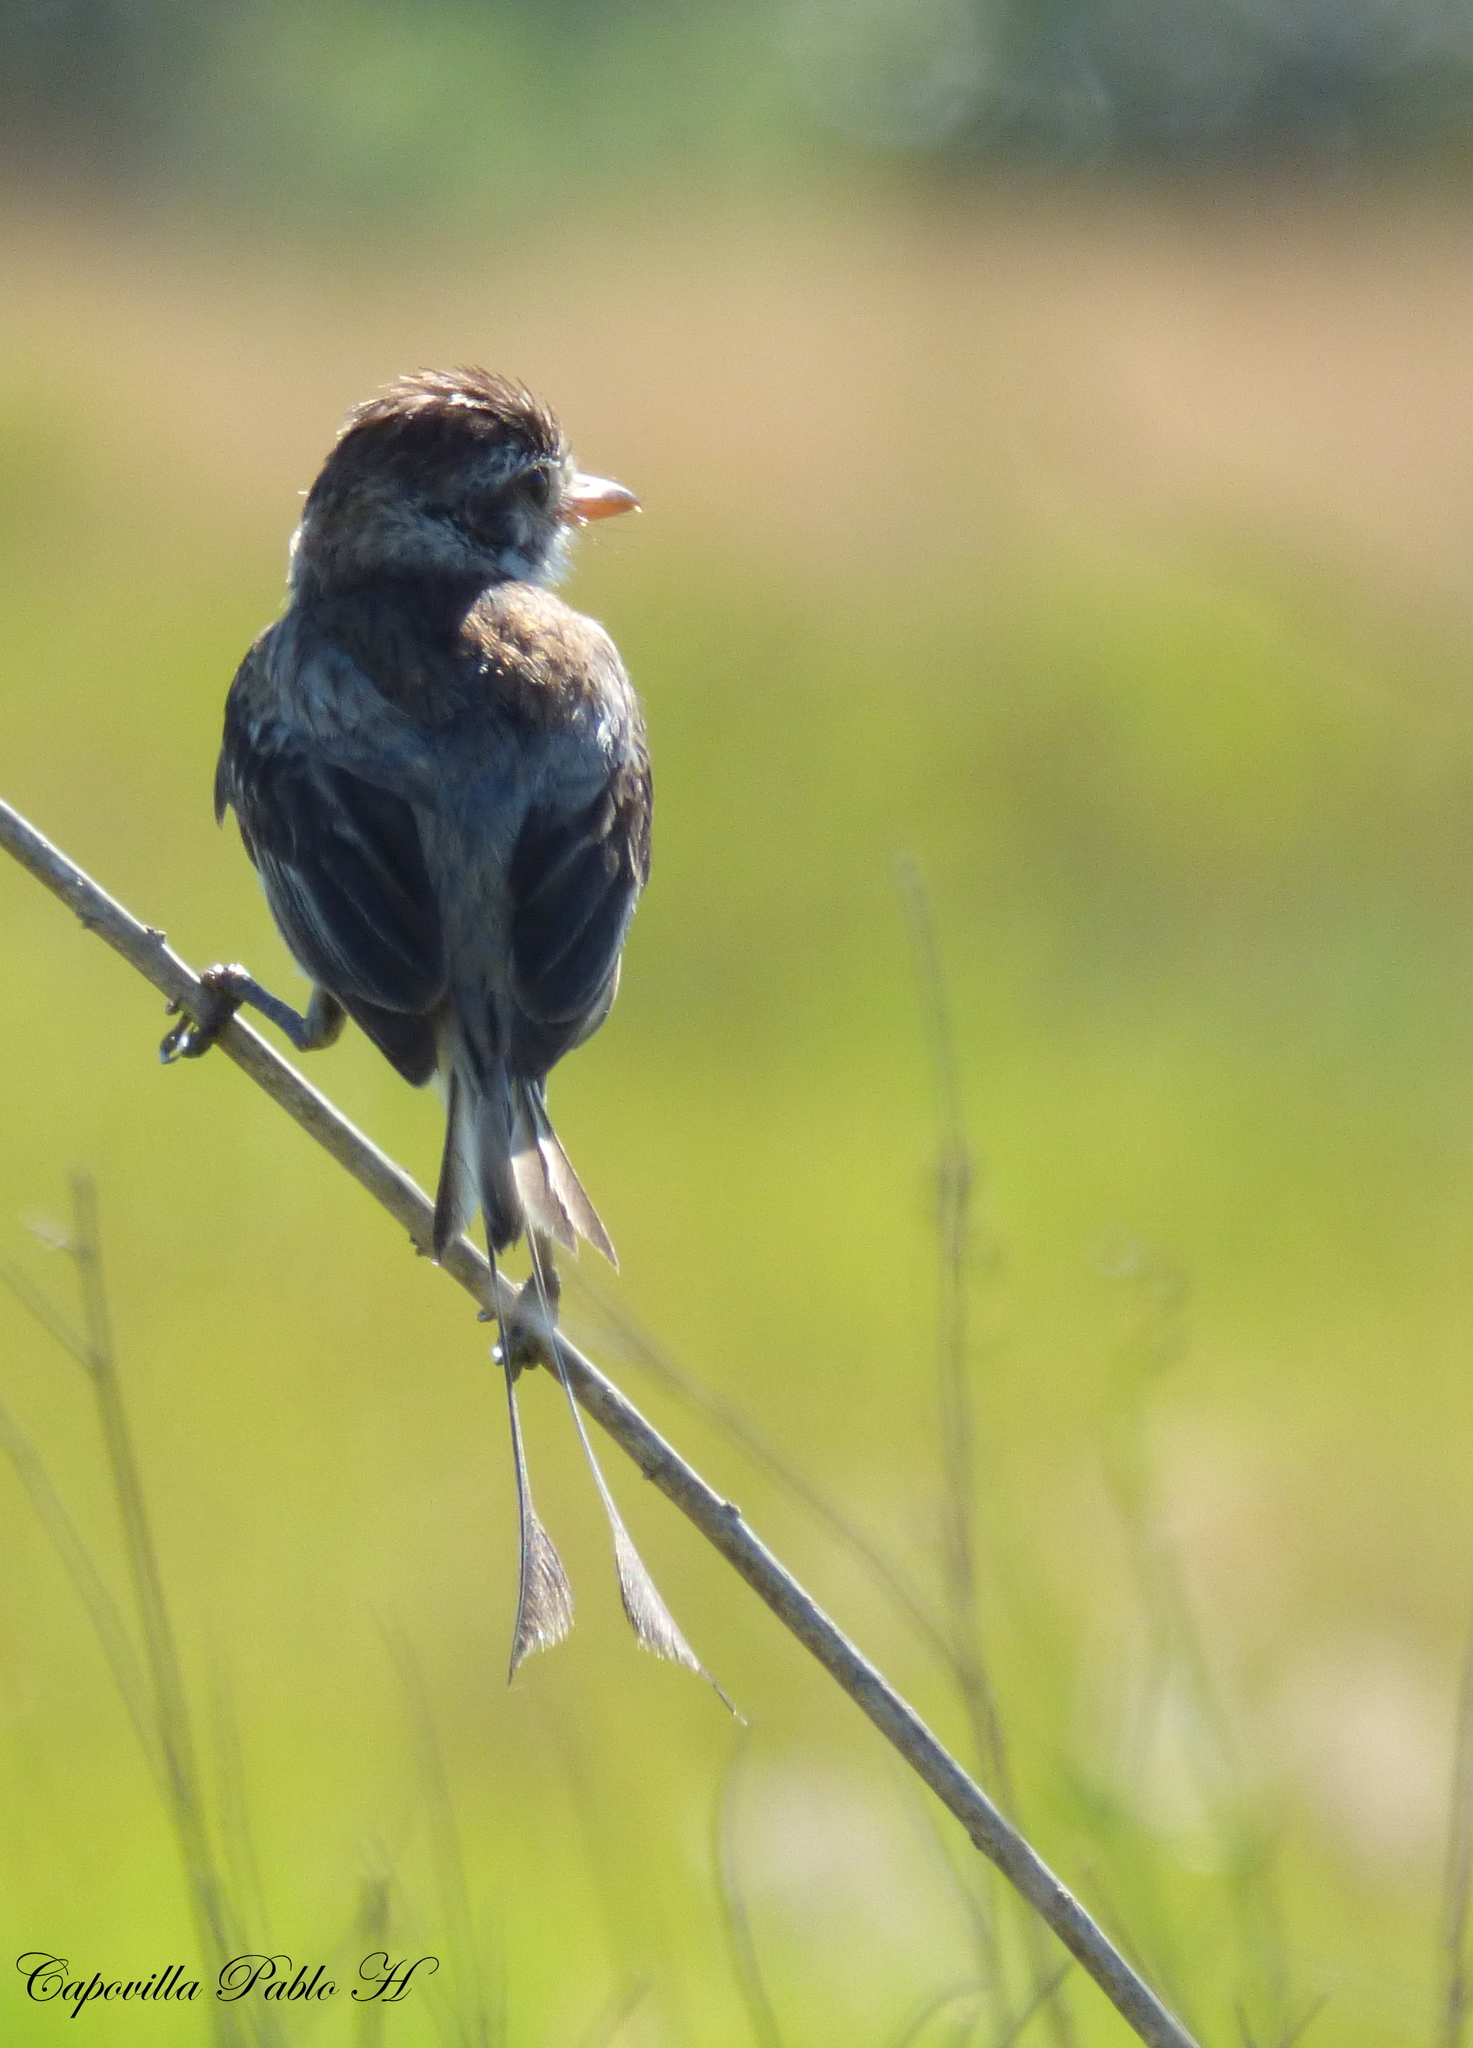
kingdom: Animalia
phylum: Chordata
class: Aves
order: Passeriformes
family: Tyrannidae
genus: Alectrurus
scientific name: Alectrurus risora
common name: Strange-tailed tyrant
